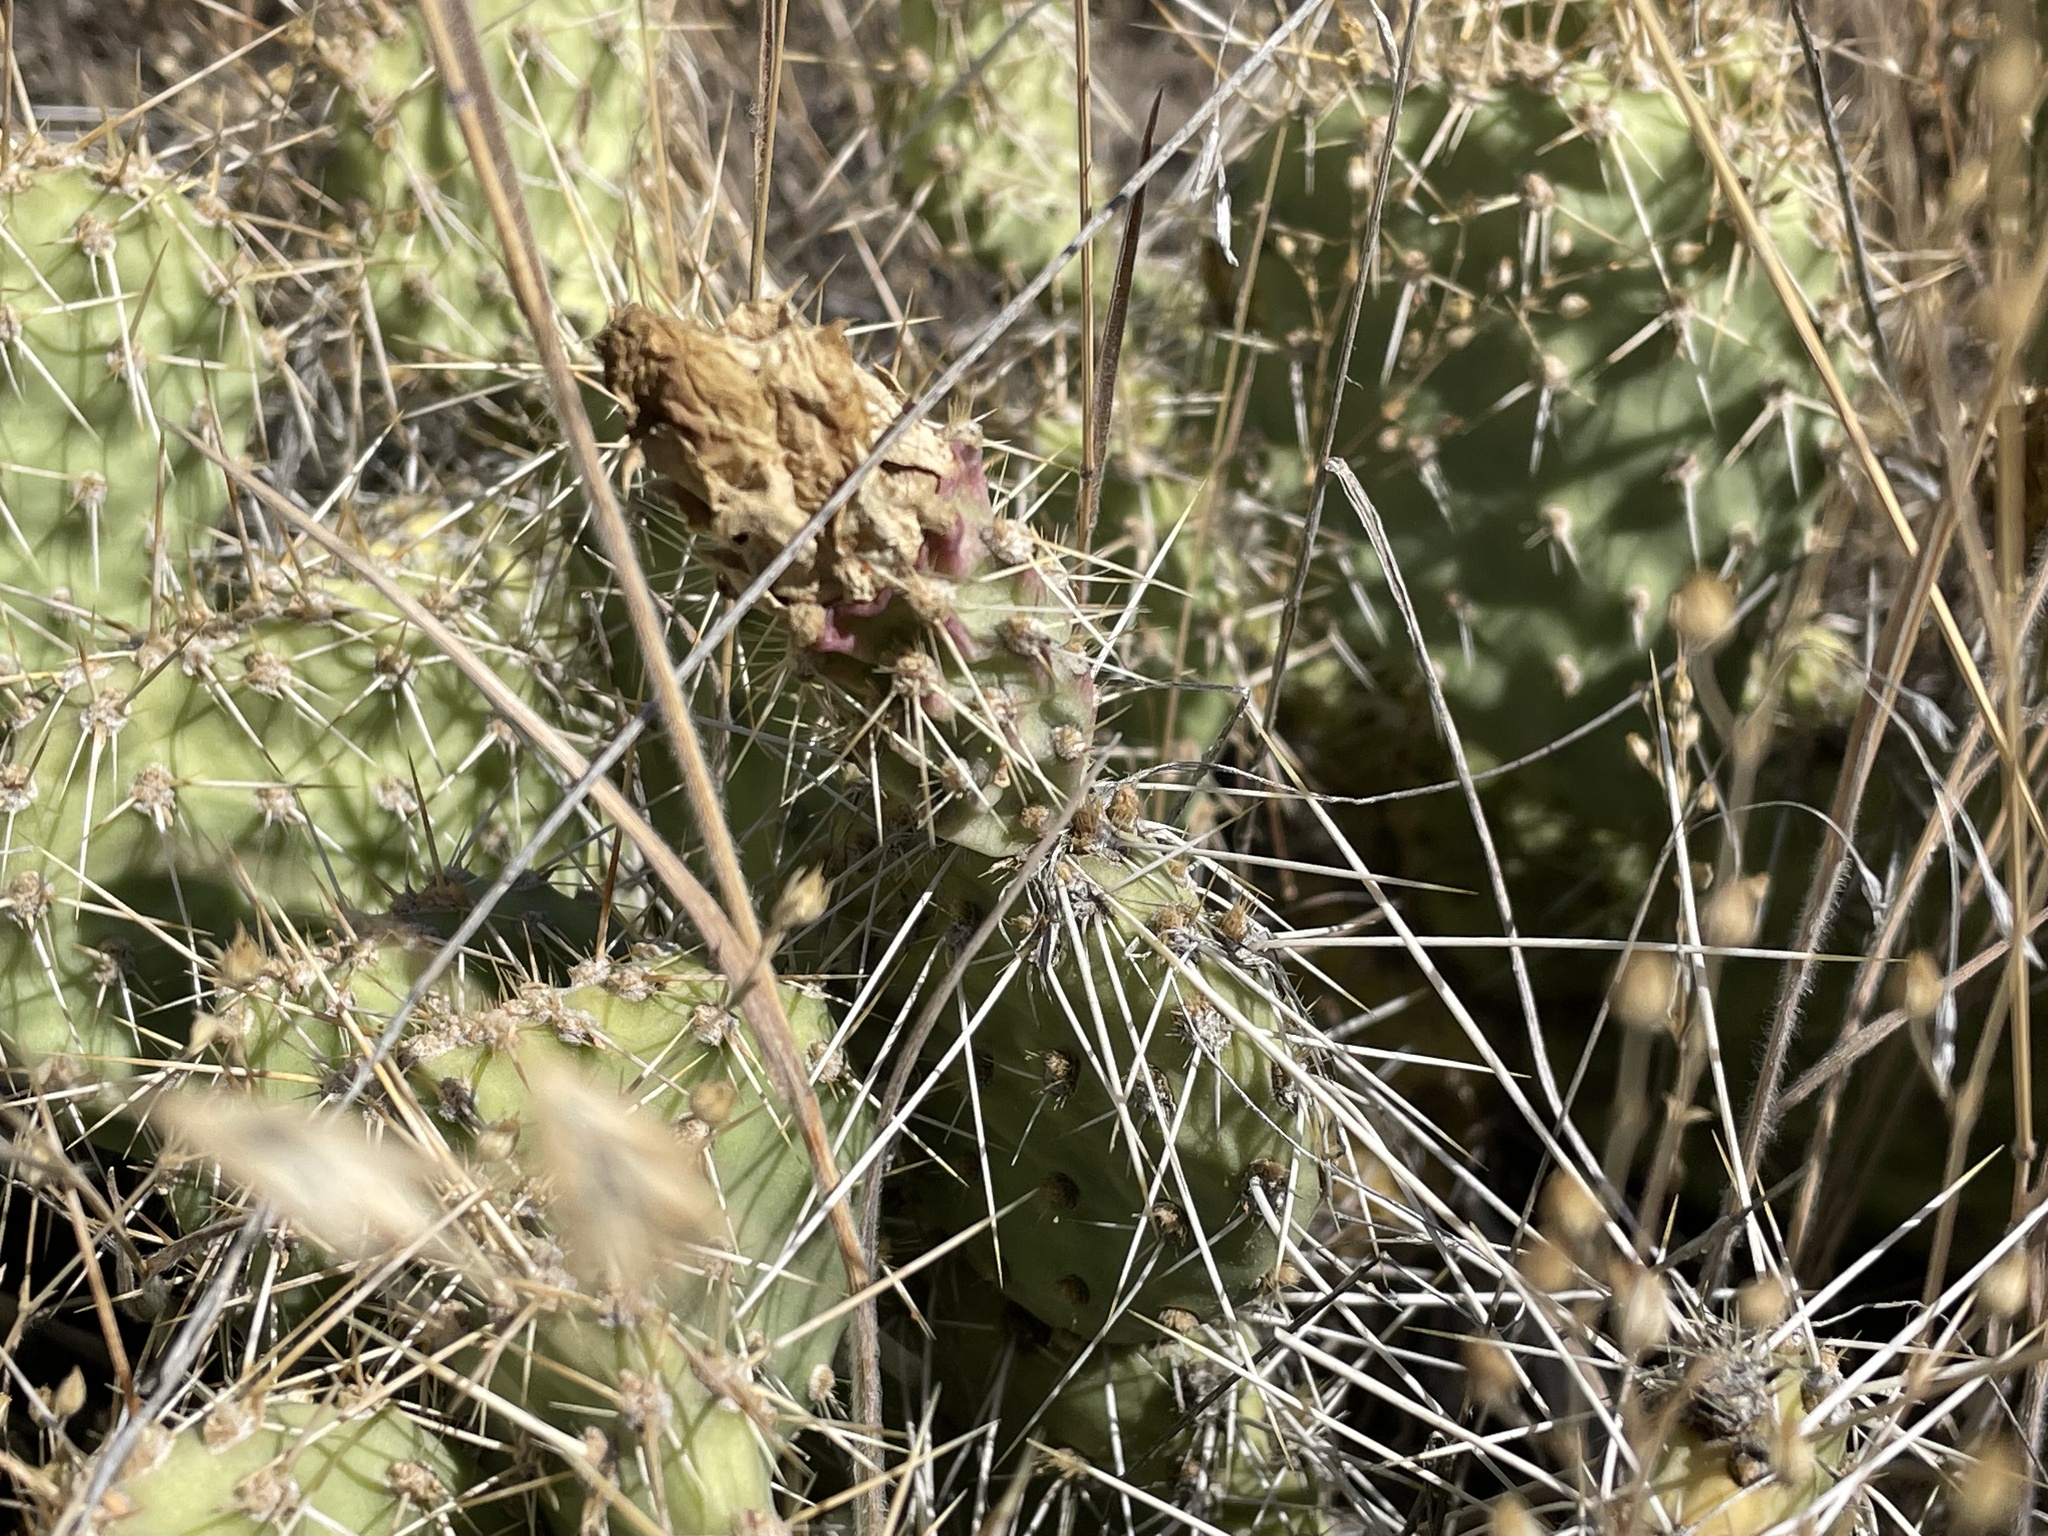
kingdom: Plantae
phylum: Tracheophyta
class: Magnoliopsida
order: Caryophyllales
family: Cactaceae
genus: Opuntia
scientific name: Opuntia polyacantha
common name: Plains prickly-pear
